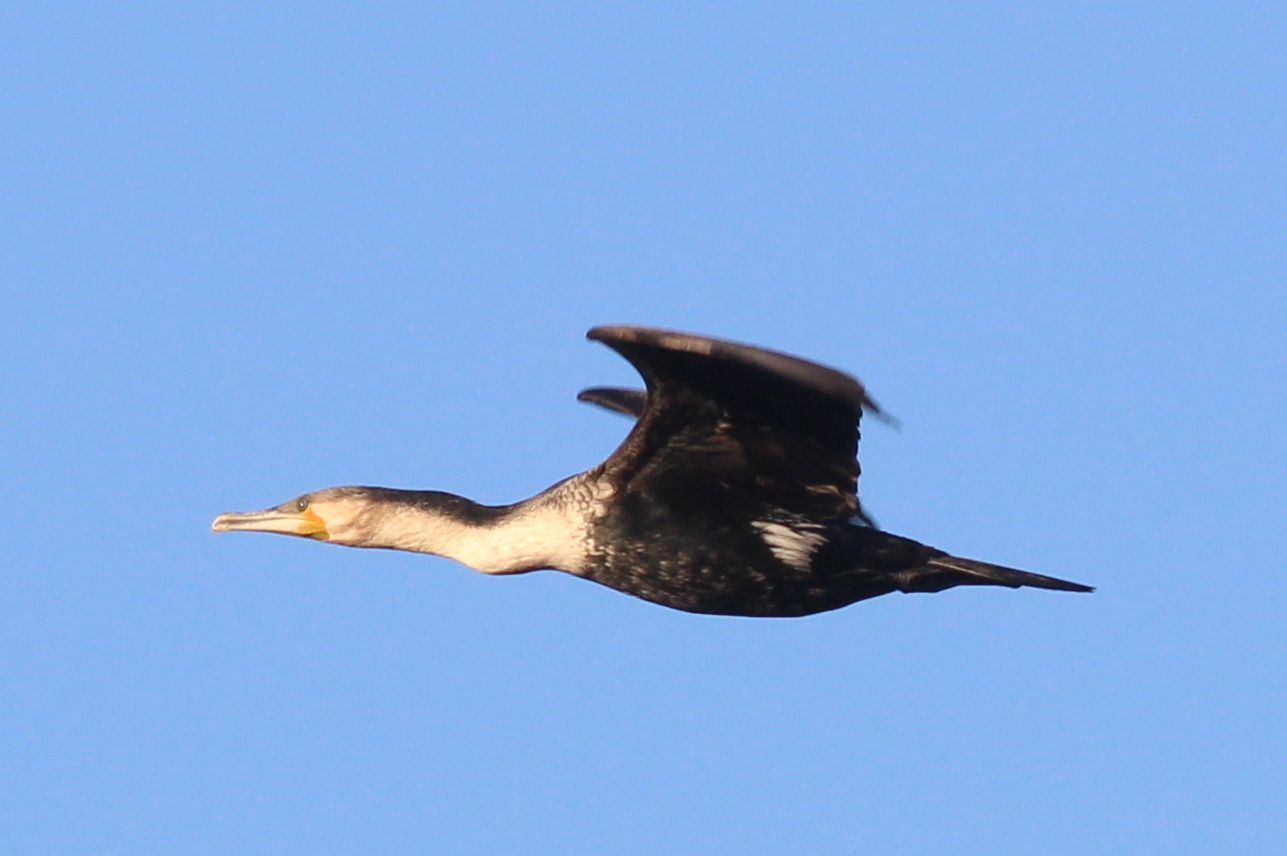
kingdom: Animalia
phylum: Chordata
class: Aves
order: Suliformes
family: Phalacrocoracidae
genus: Phalacrocorax
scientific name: Phalacrocorax carbo
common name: Great cormorant
